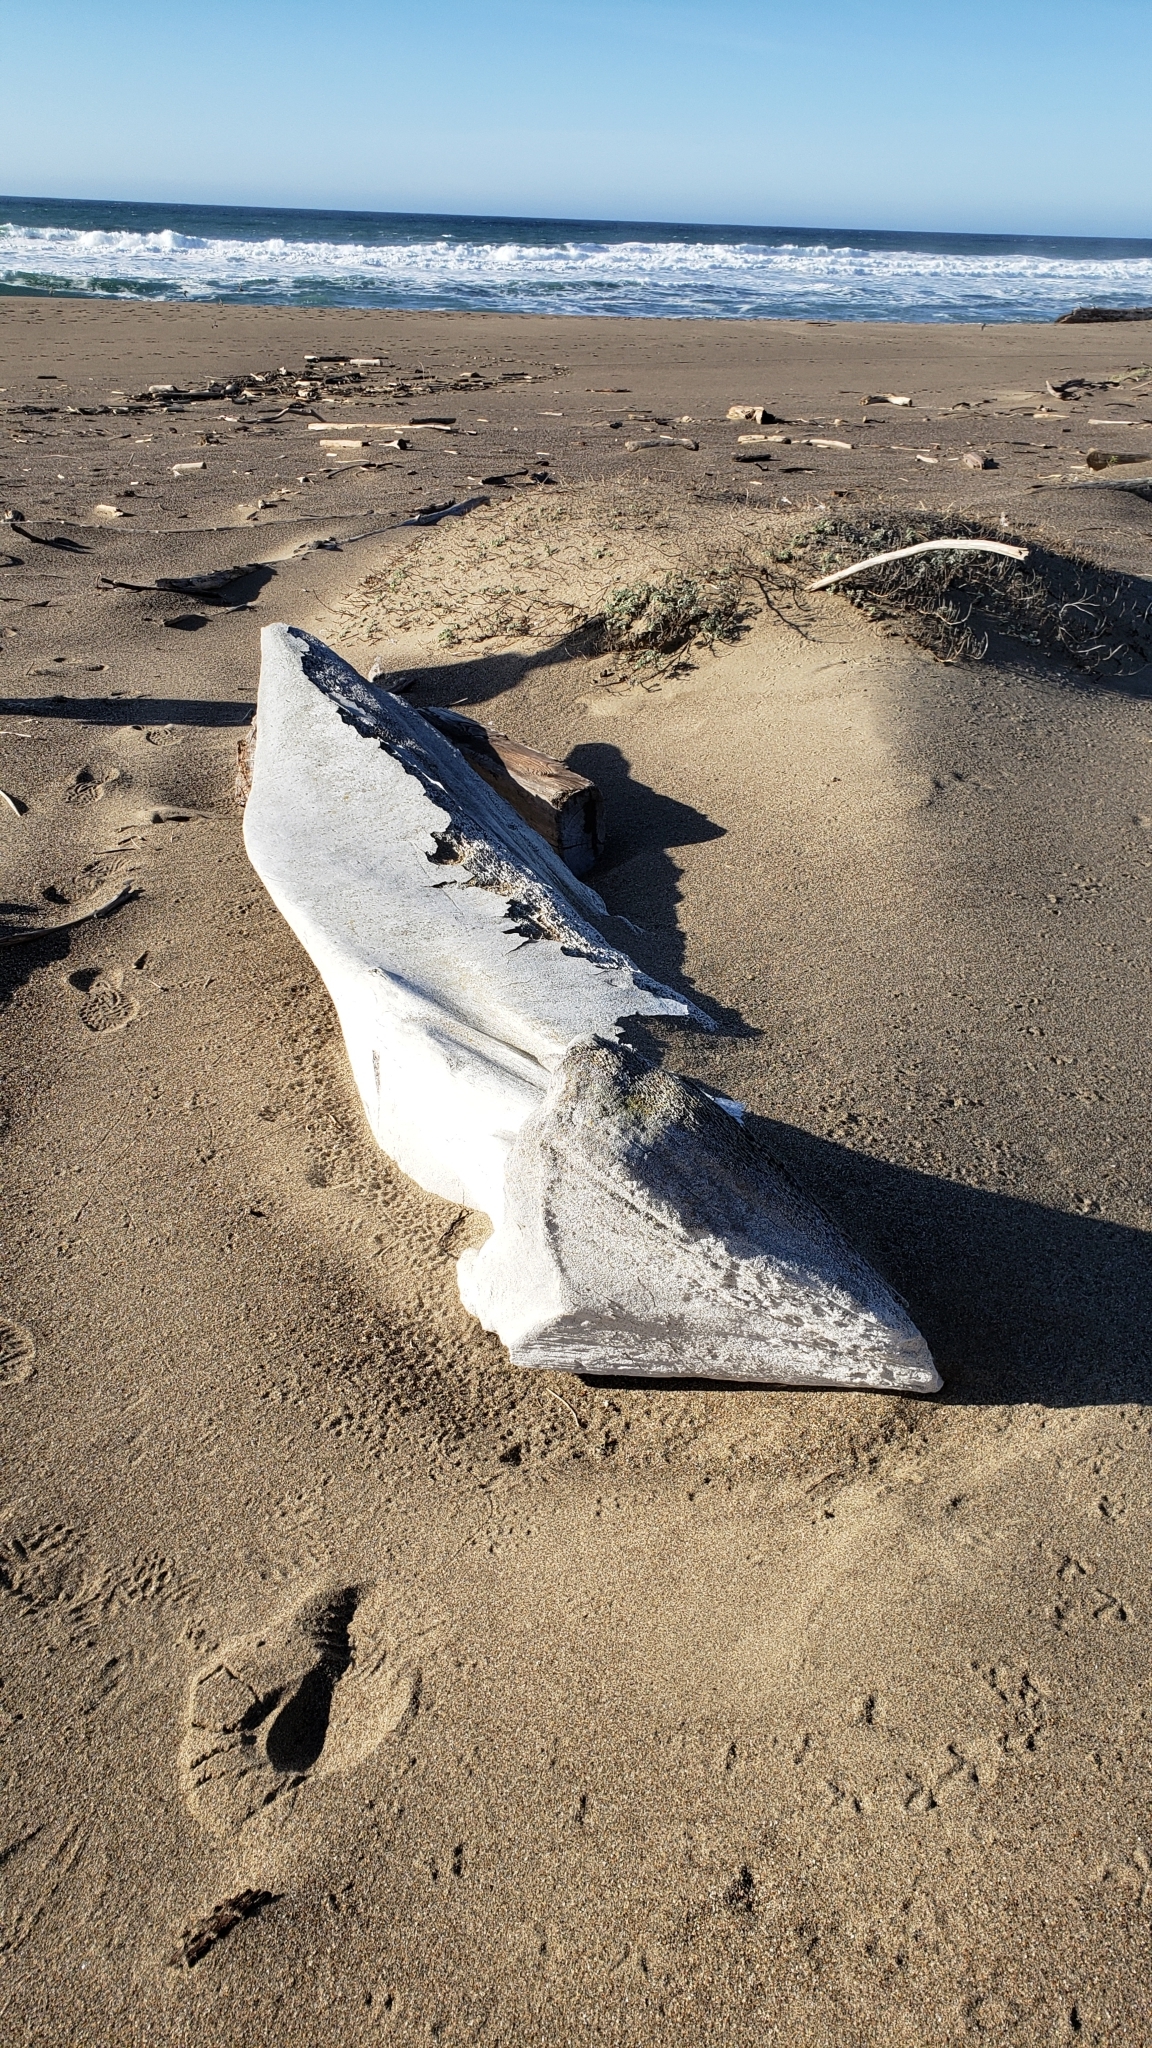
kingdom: Animalia
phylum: Chordata
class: Mammalia
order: Cetacea
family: Physeteridae
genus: Physeter
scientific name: Physeter macrocephalus
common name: Sperm whale
